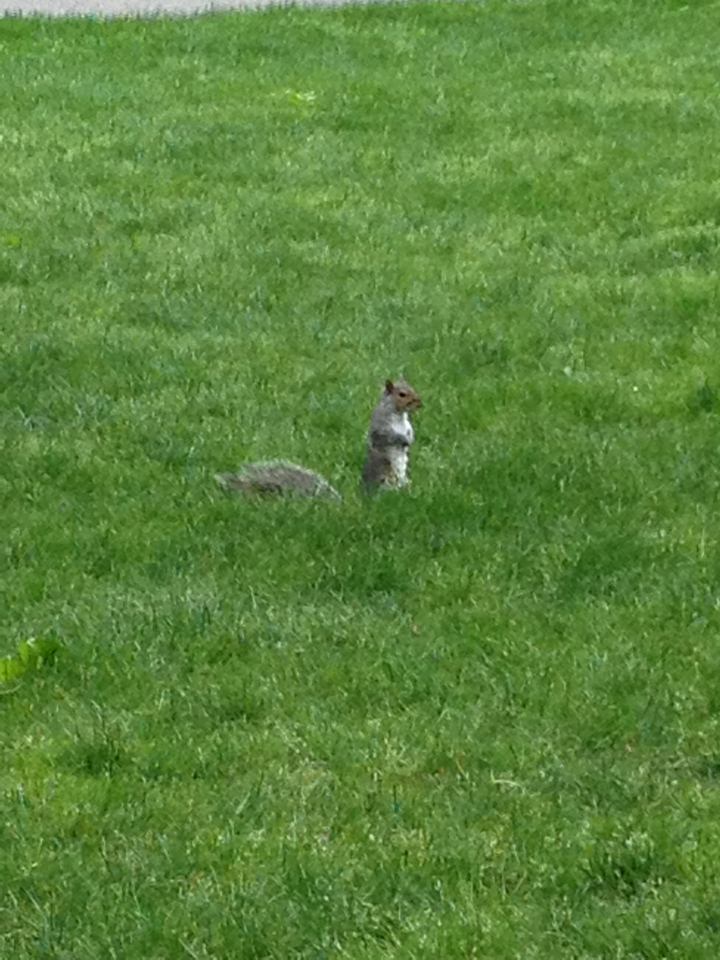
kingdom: Animalia
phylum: Chordata
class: Mammalia
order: Rodentia
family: Sciuridae
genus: Sciurus
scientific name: Sciurus carolinensis
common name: Eastern gray squirrel
